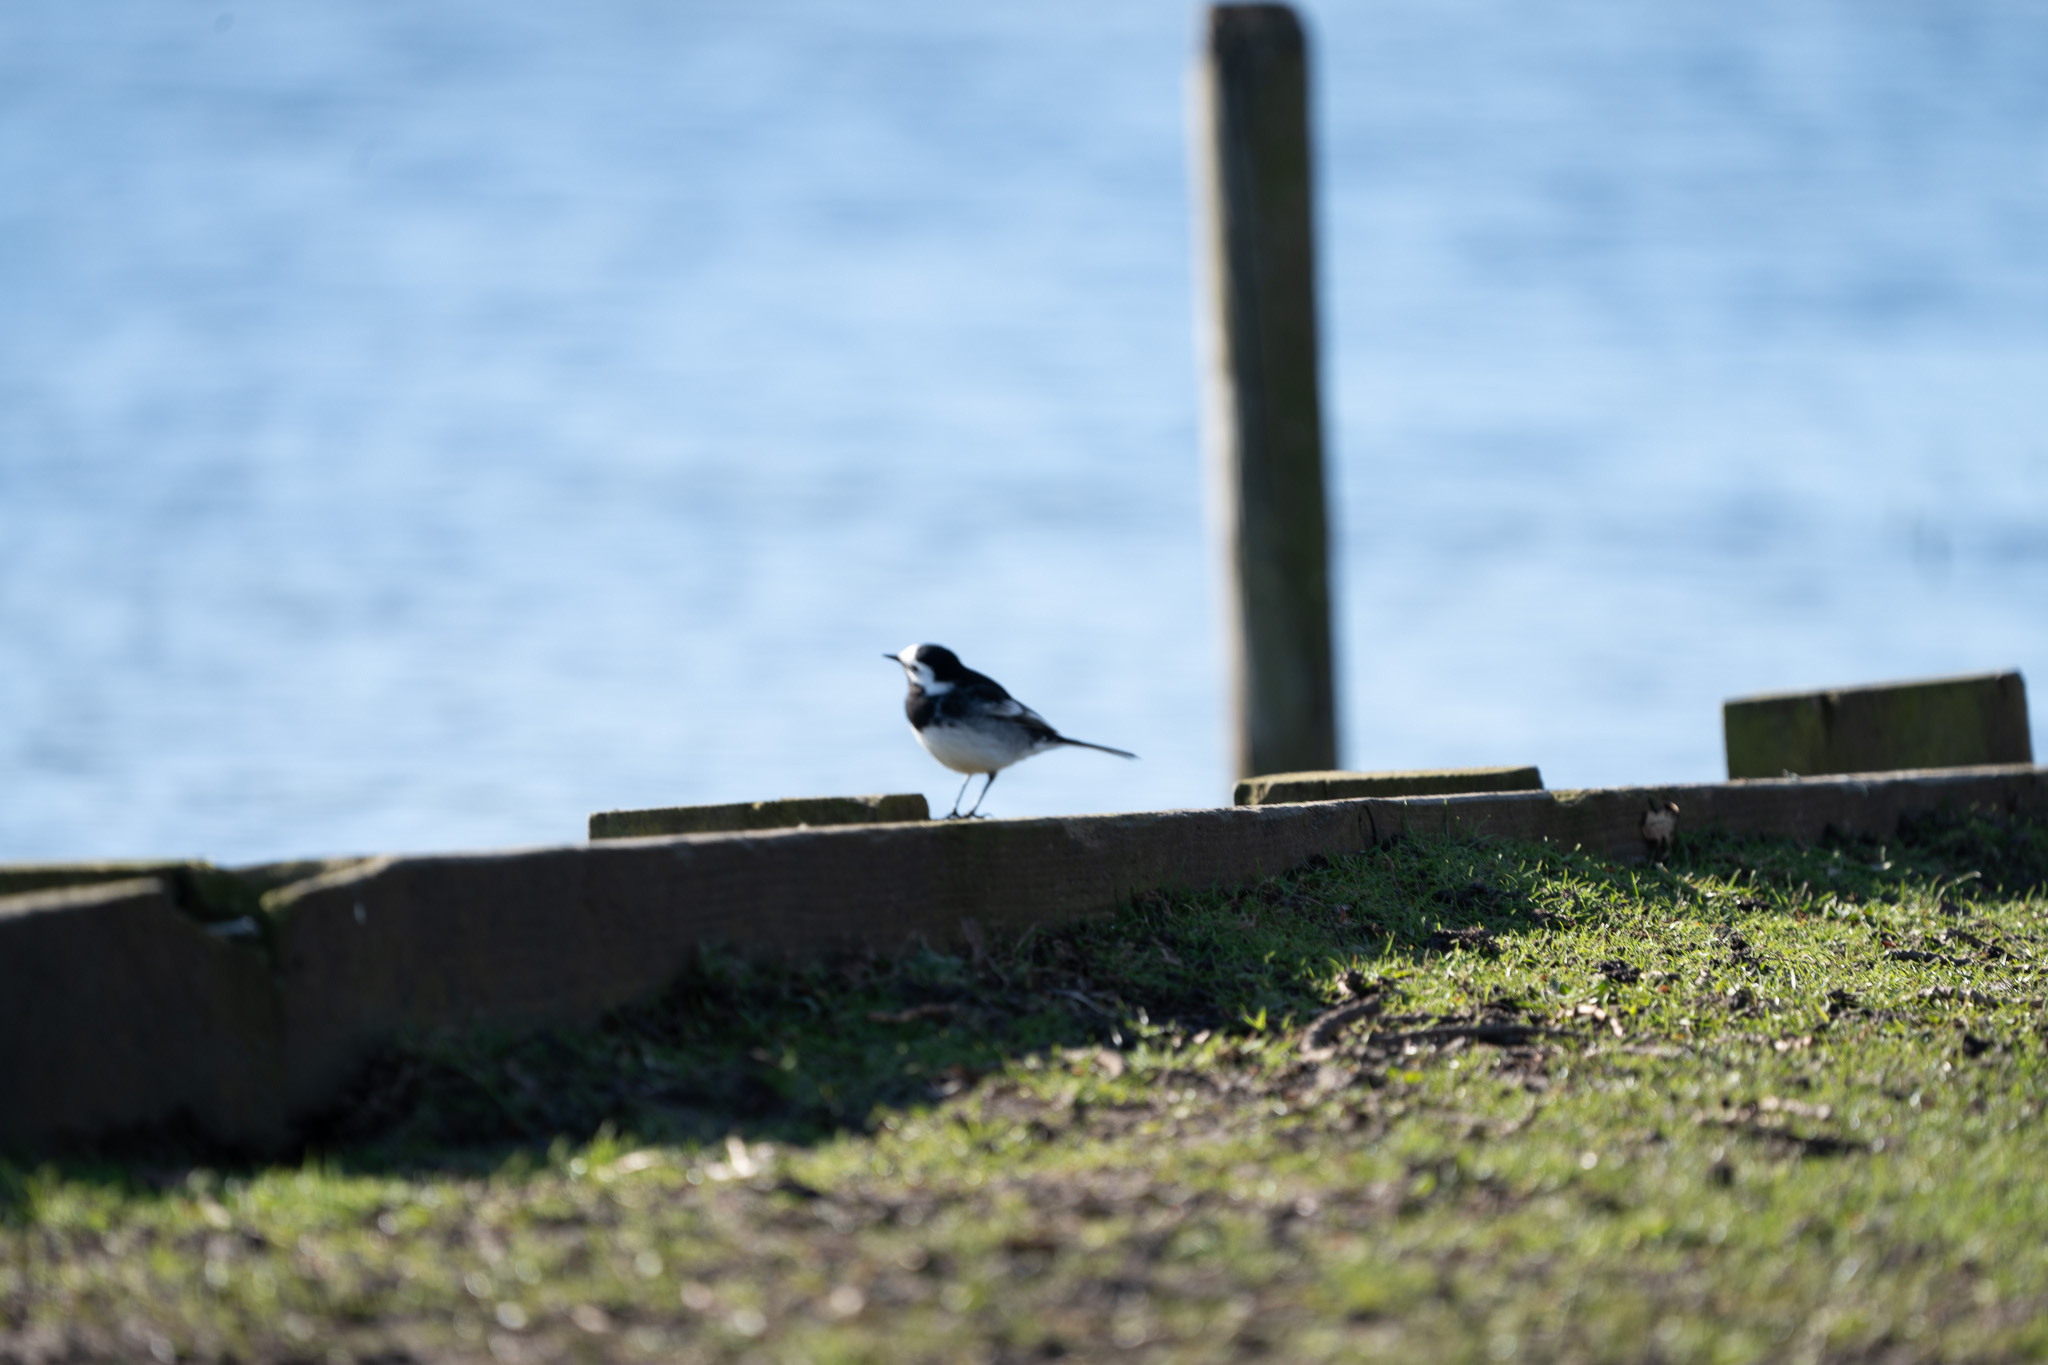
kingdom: Animalia
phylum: Chordata
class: Aves
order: Passeriformes
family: Motacillidae
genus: Motacilla
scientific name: Motacilla alba
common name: White wagtail
